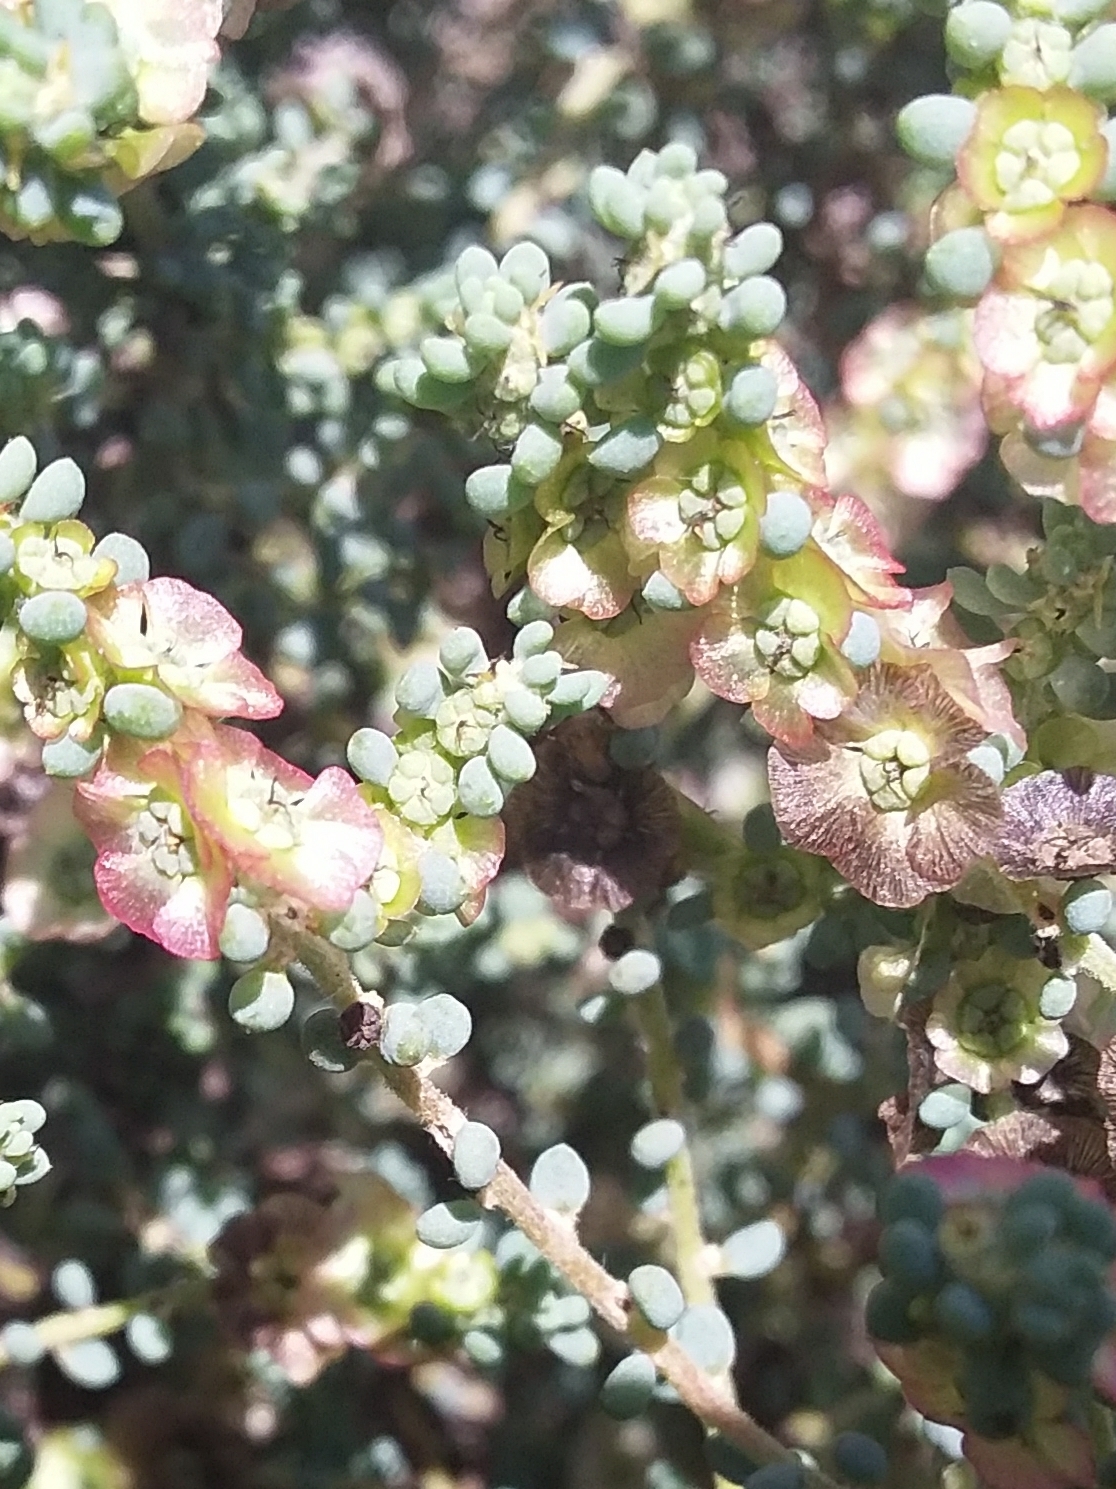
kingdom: Plantae
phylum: Tracheophyta
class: Magnoliopsida
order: Caryophyllales
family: Amaranthaceae
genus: Maireana
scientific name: Maireana brevifolia
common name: Eastern cottonbush
